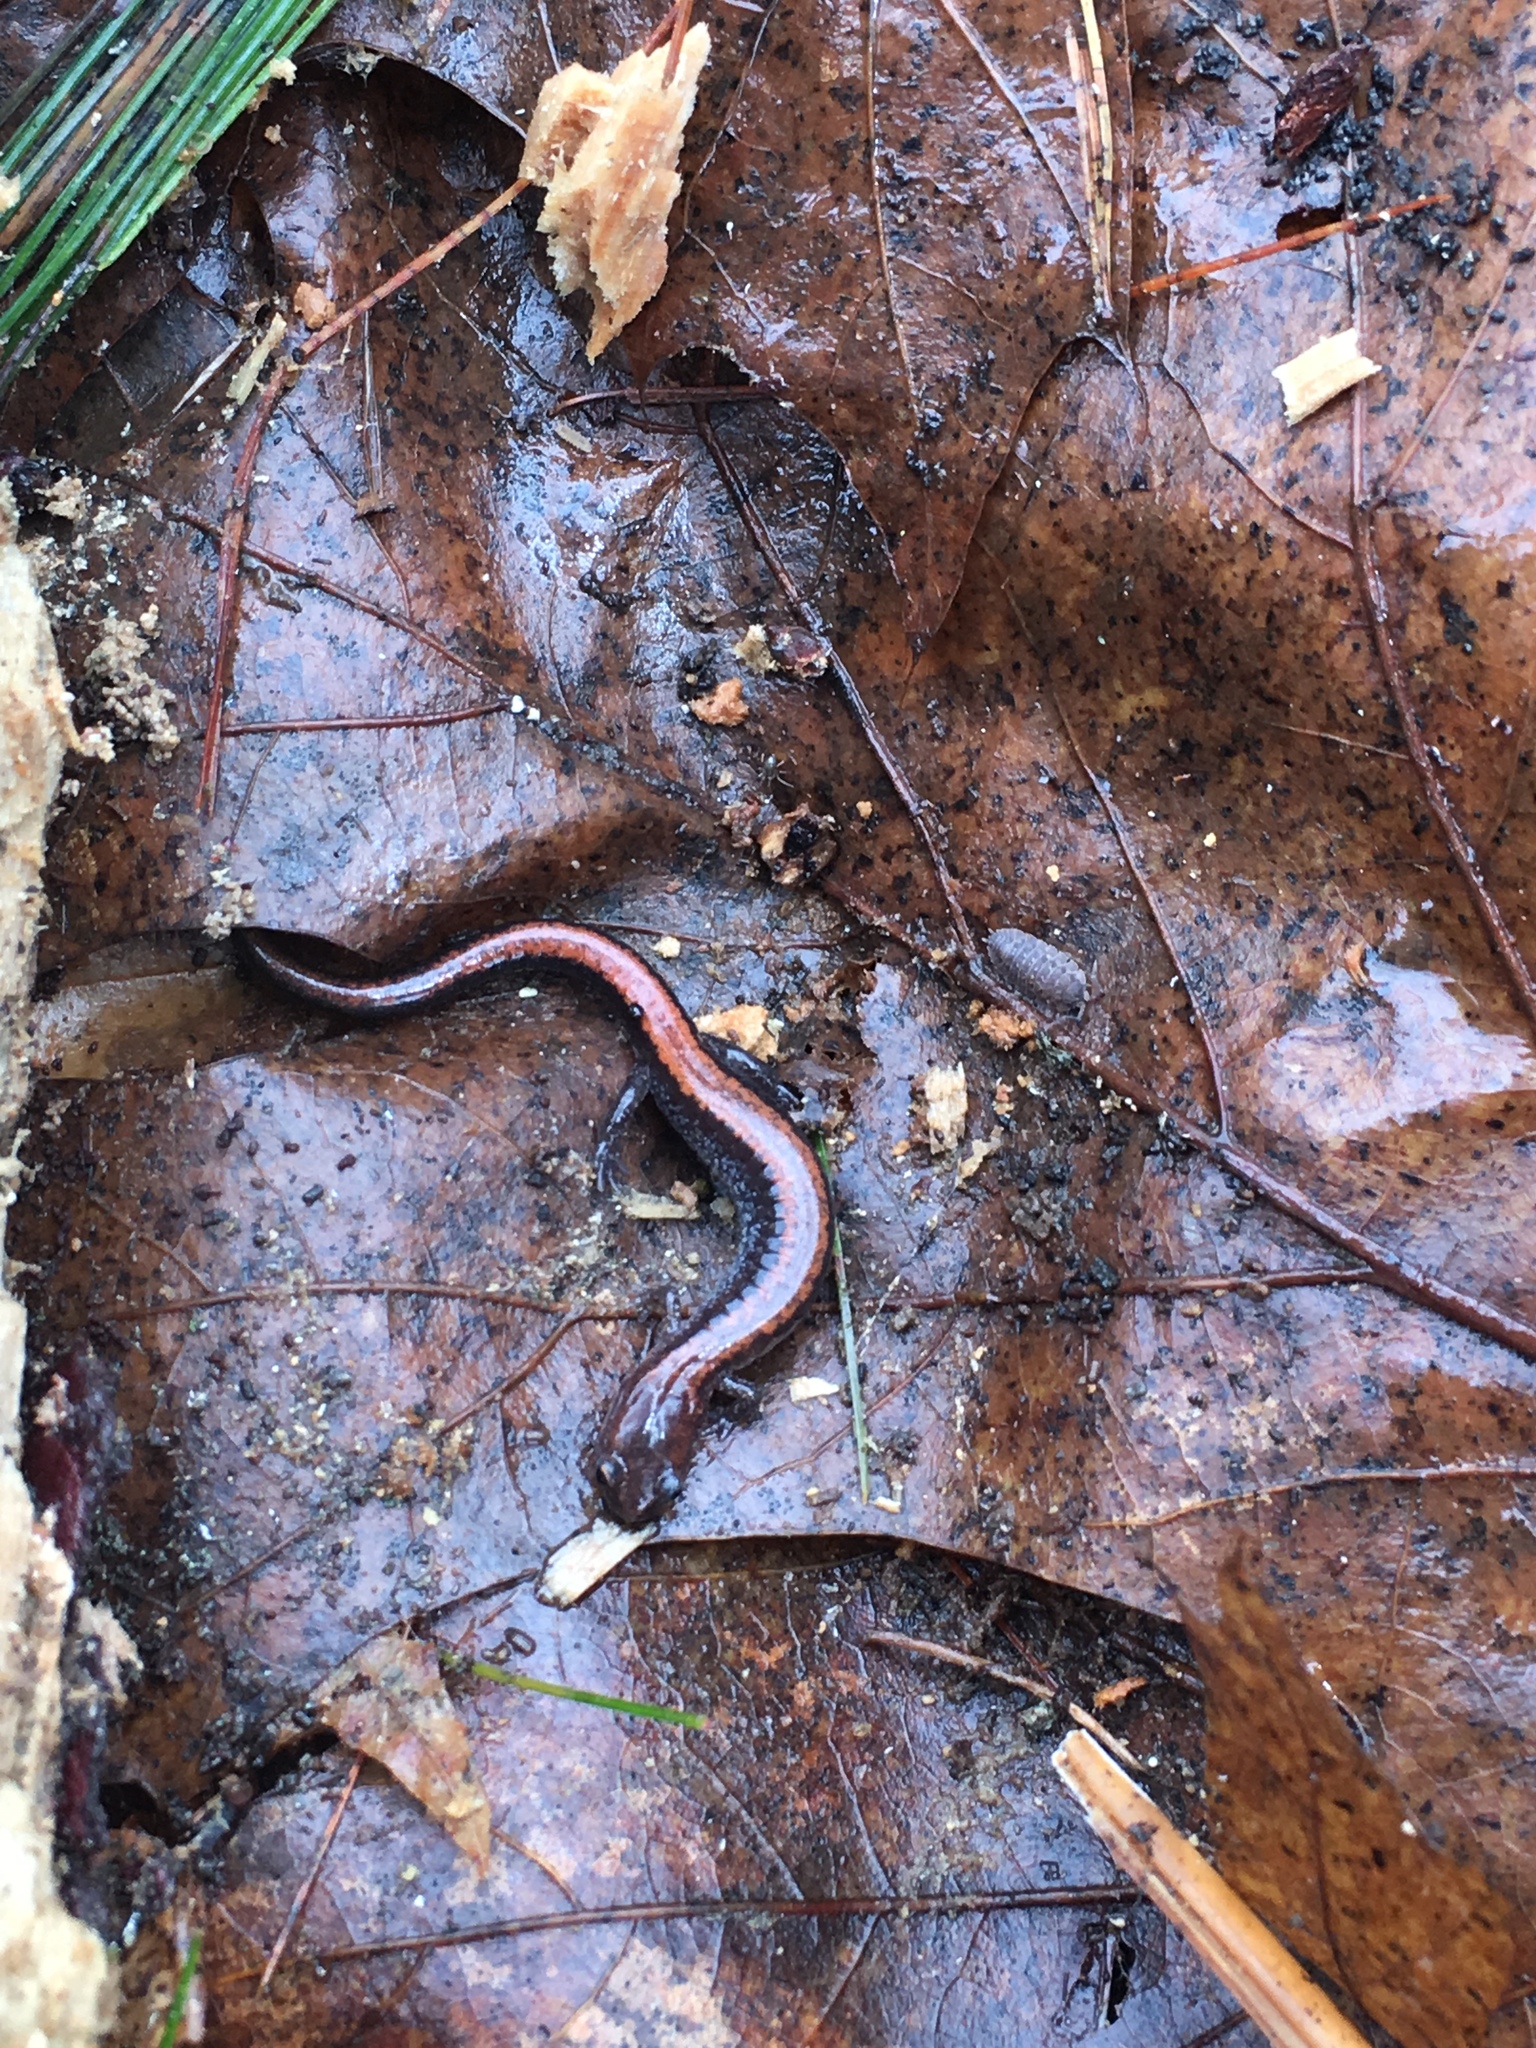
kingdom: Animalia
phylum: Chordata
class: Amphibia
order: Caudata
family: Plethodontidae
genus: Plethodon
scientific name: Plethodon cinereus
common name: Redback salamander
